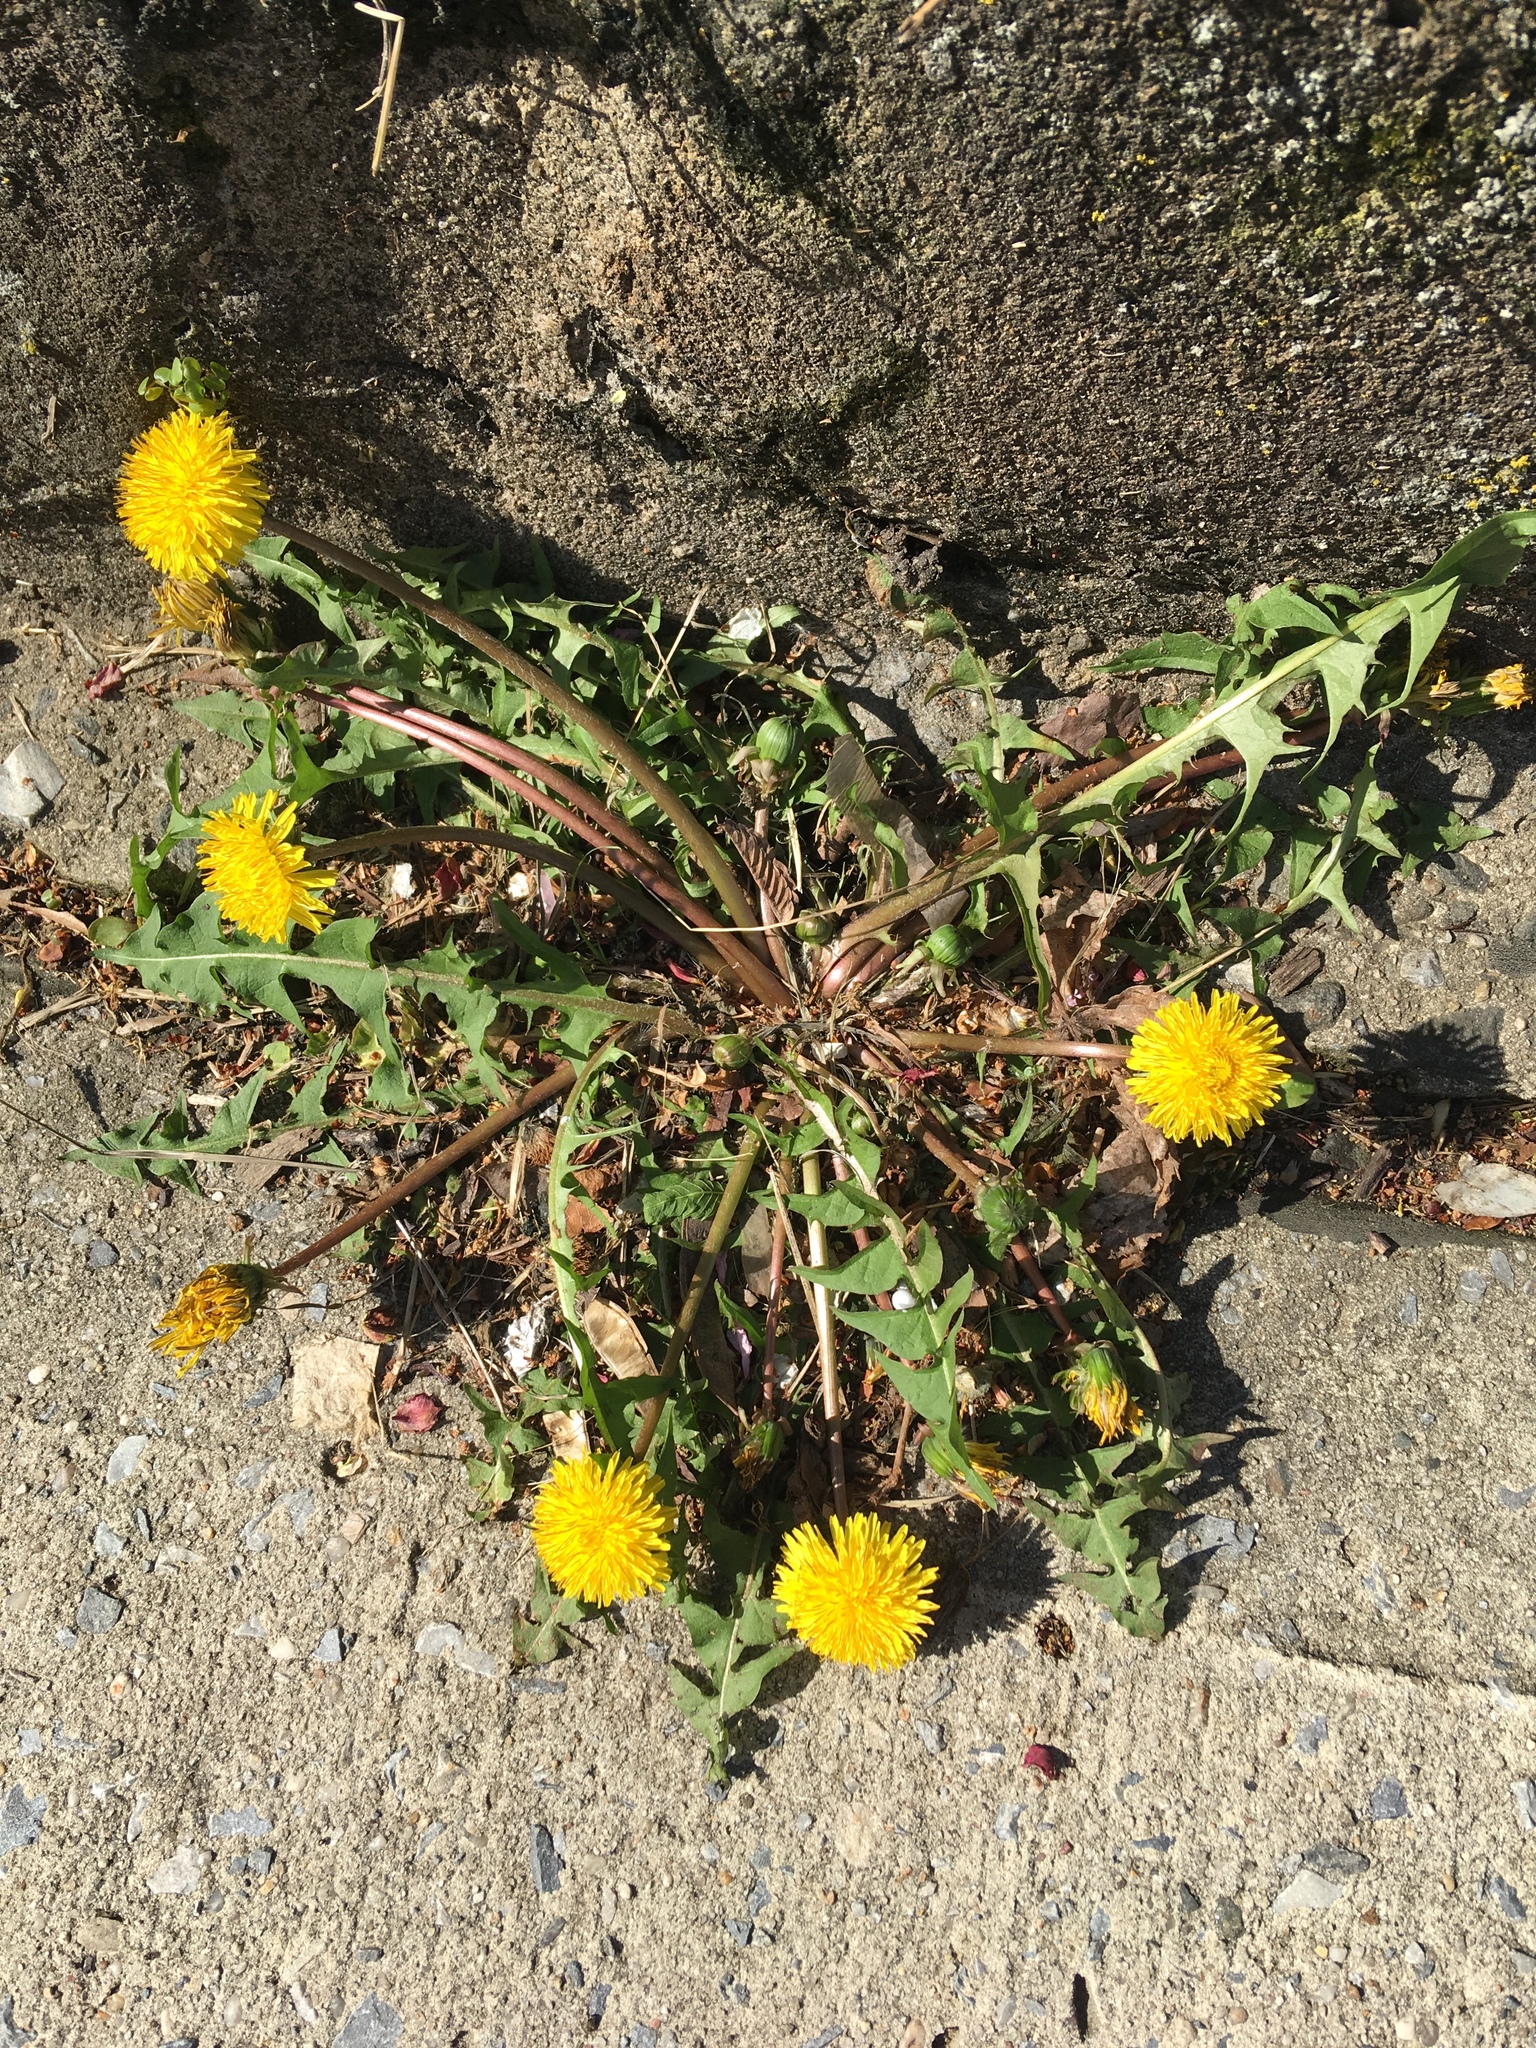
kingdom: Plantae
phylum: Tracheophyta
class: Magnoliopsida
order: Asterales
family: Asteraceae
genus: Taraxacum
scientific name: Taraxacum officinale
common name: Common dandelion
